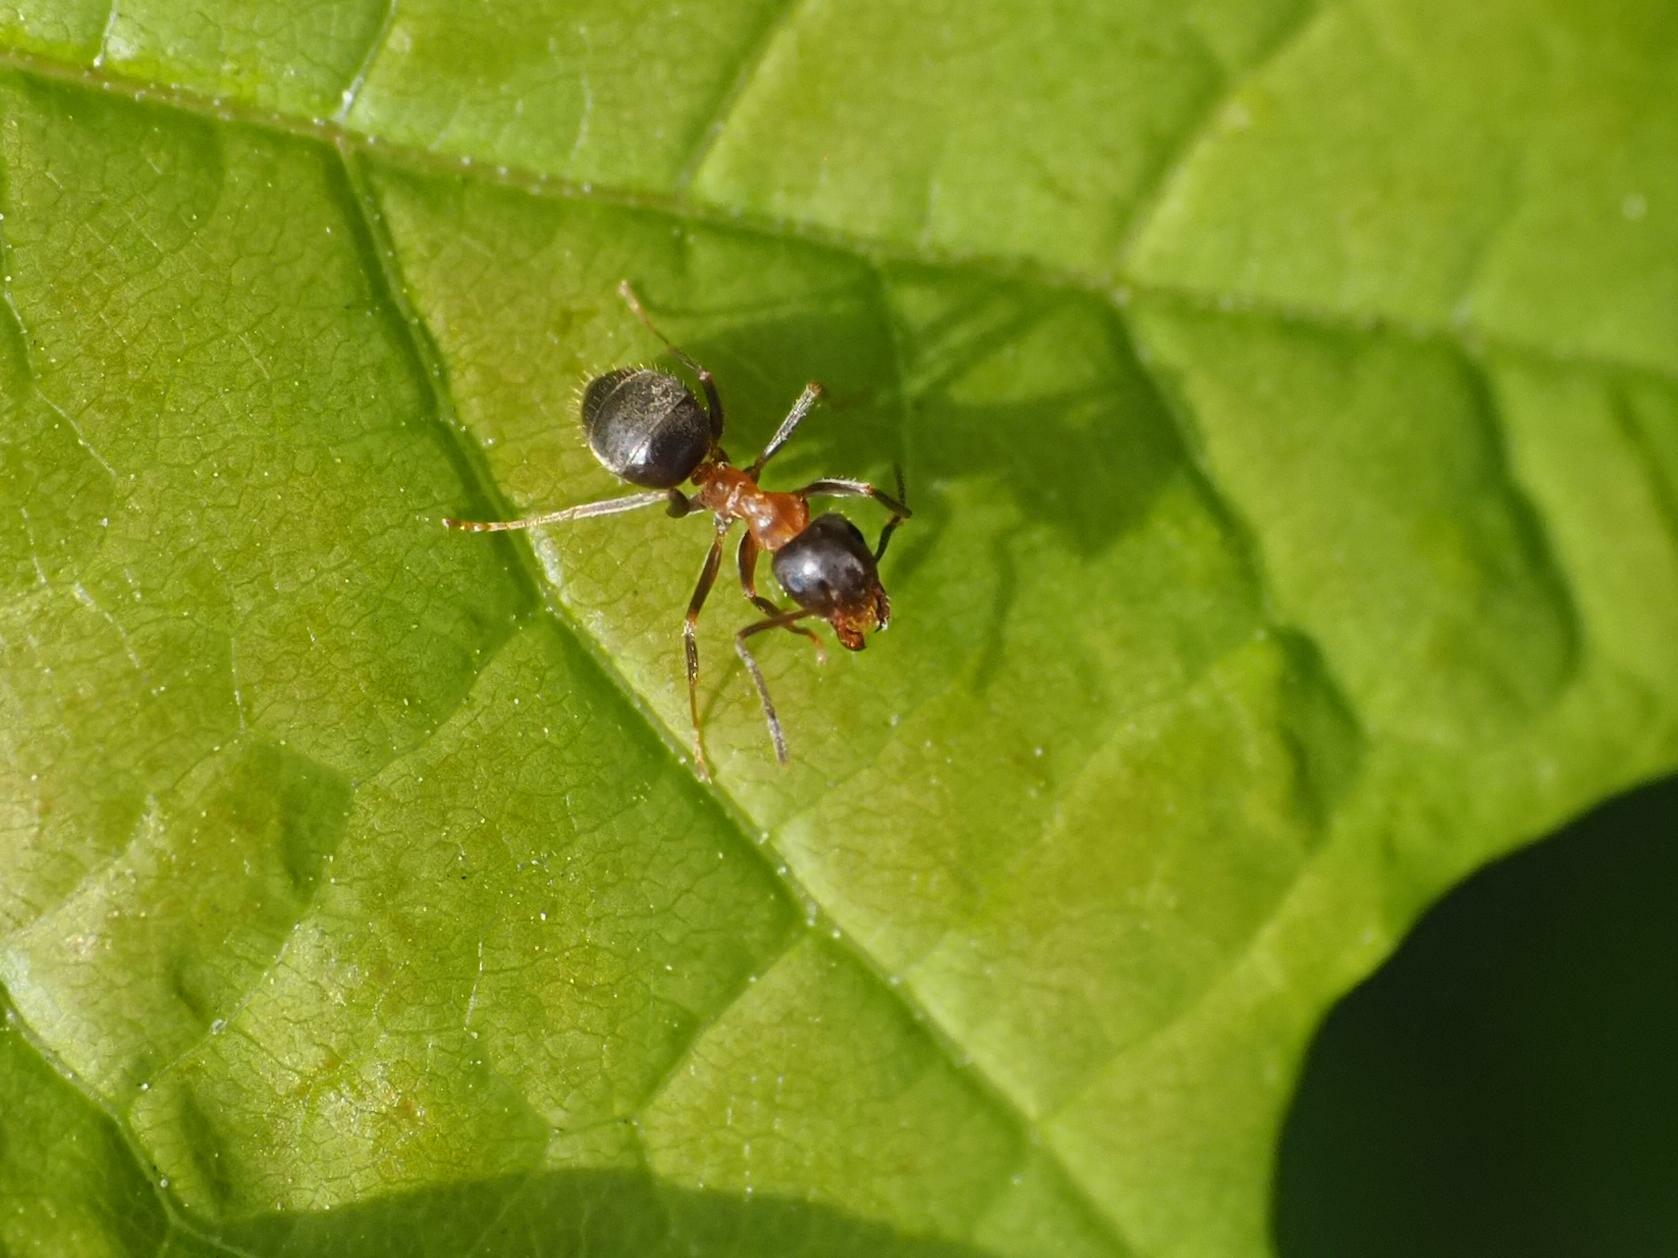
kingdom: Animalia
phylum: Arthropoda
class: Insecta
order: Hymenoptera
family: Formicidae
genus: Lasius
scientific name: Lasius emarginatus
